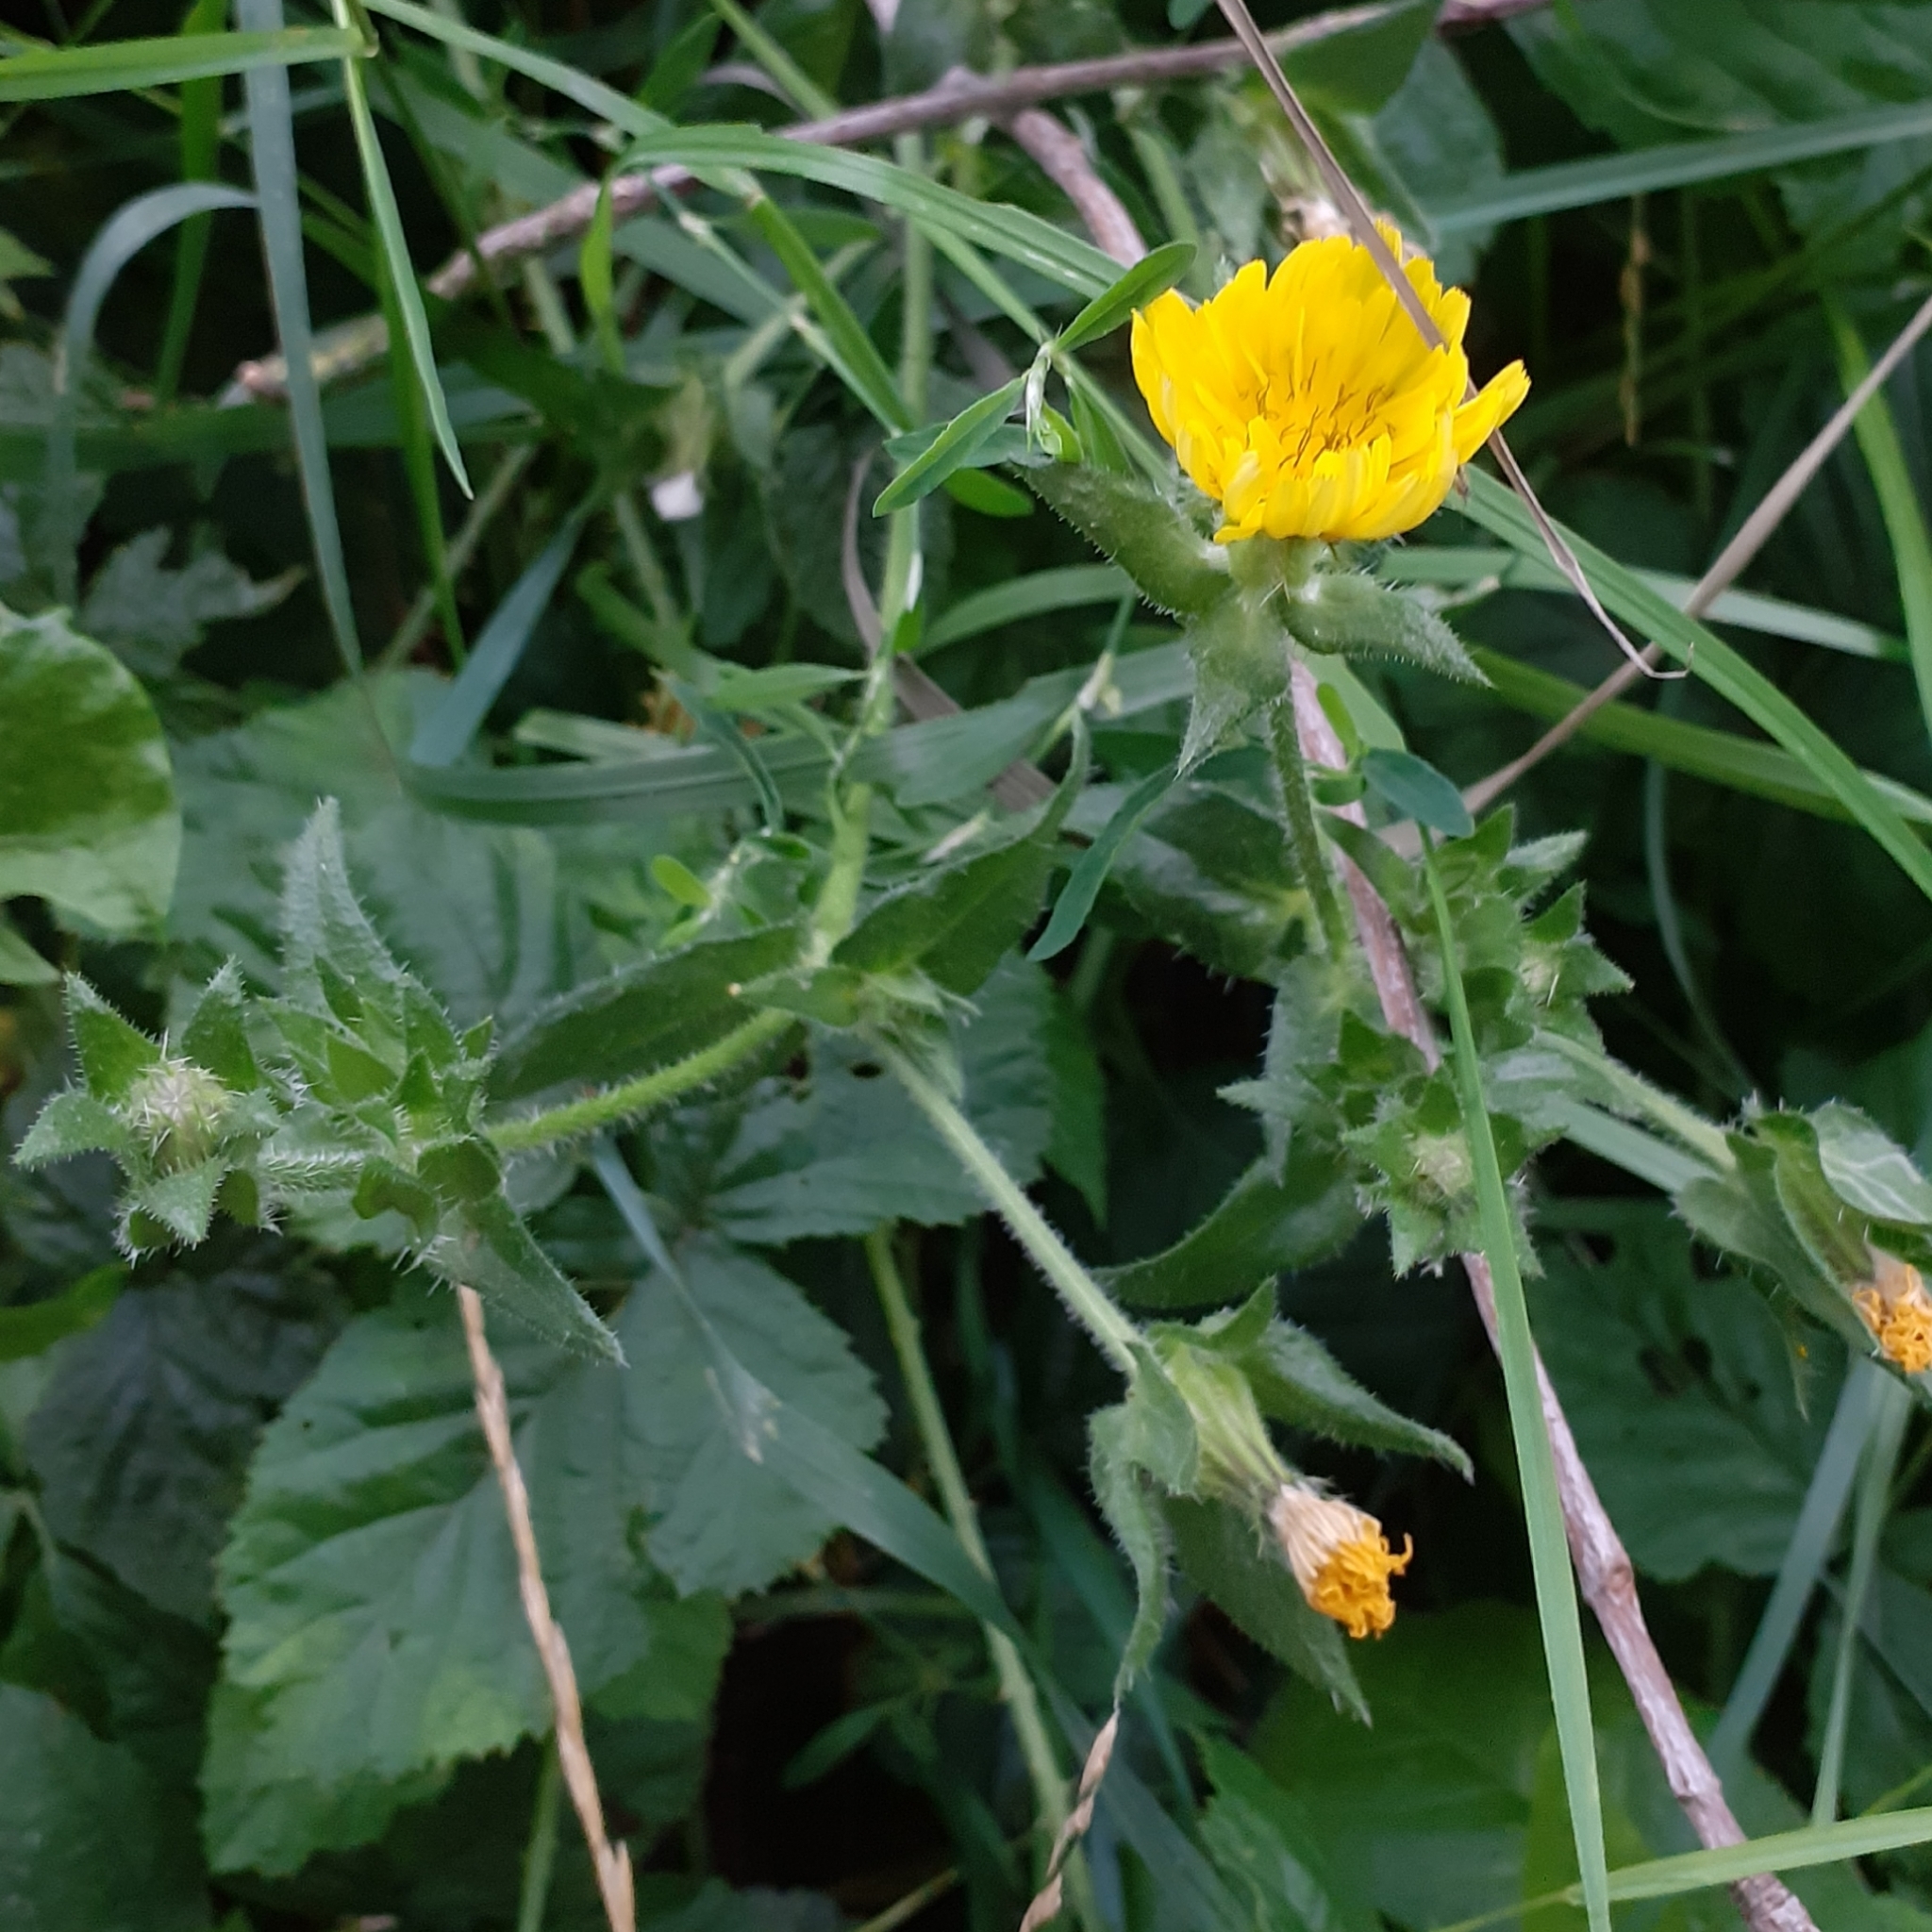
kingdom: Plantae
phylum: Tracheophyta
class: Magnoliopsida
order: Asterales
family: Asteraceae
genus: Helminthotheca
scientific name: Helminthotheca echioides
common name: Ox-tongue
